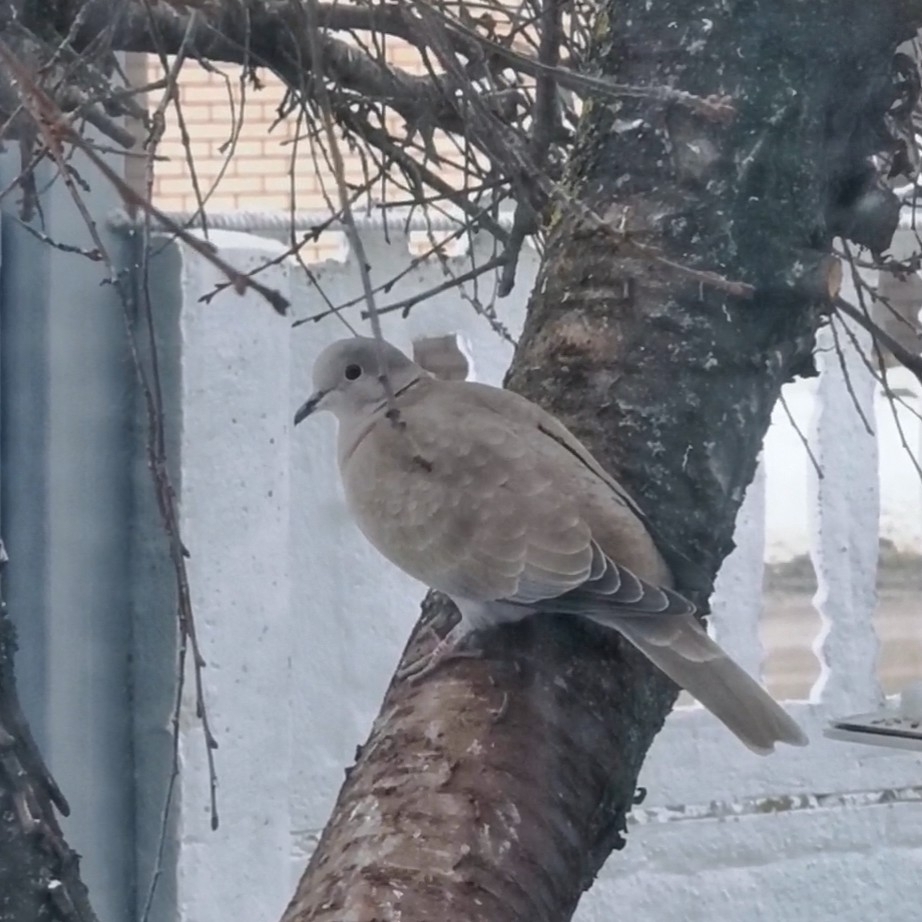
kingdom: Animalia
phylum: Chordata
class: Aves
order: Columbiformes
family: Columbidae
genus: Streptopelia
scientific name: Streptopelia decaocto
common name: Eurasian collared dove
